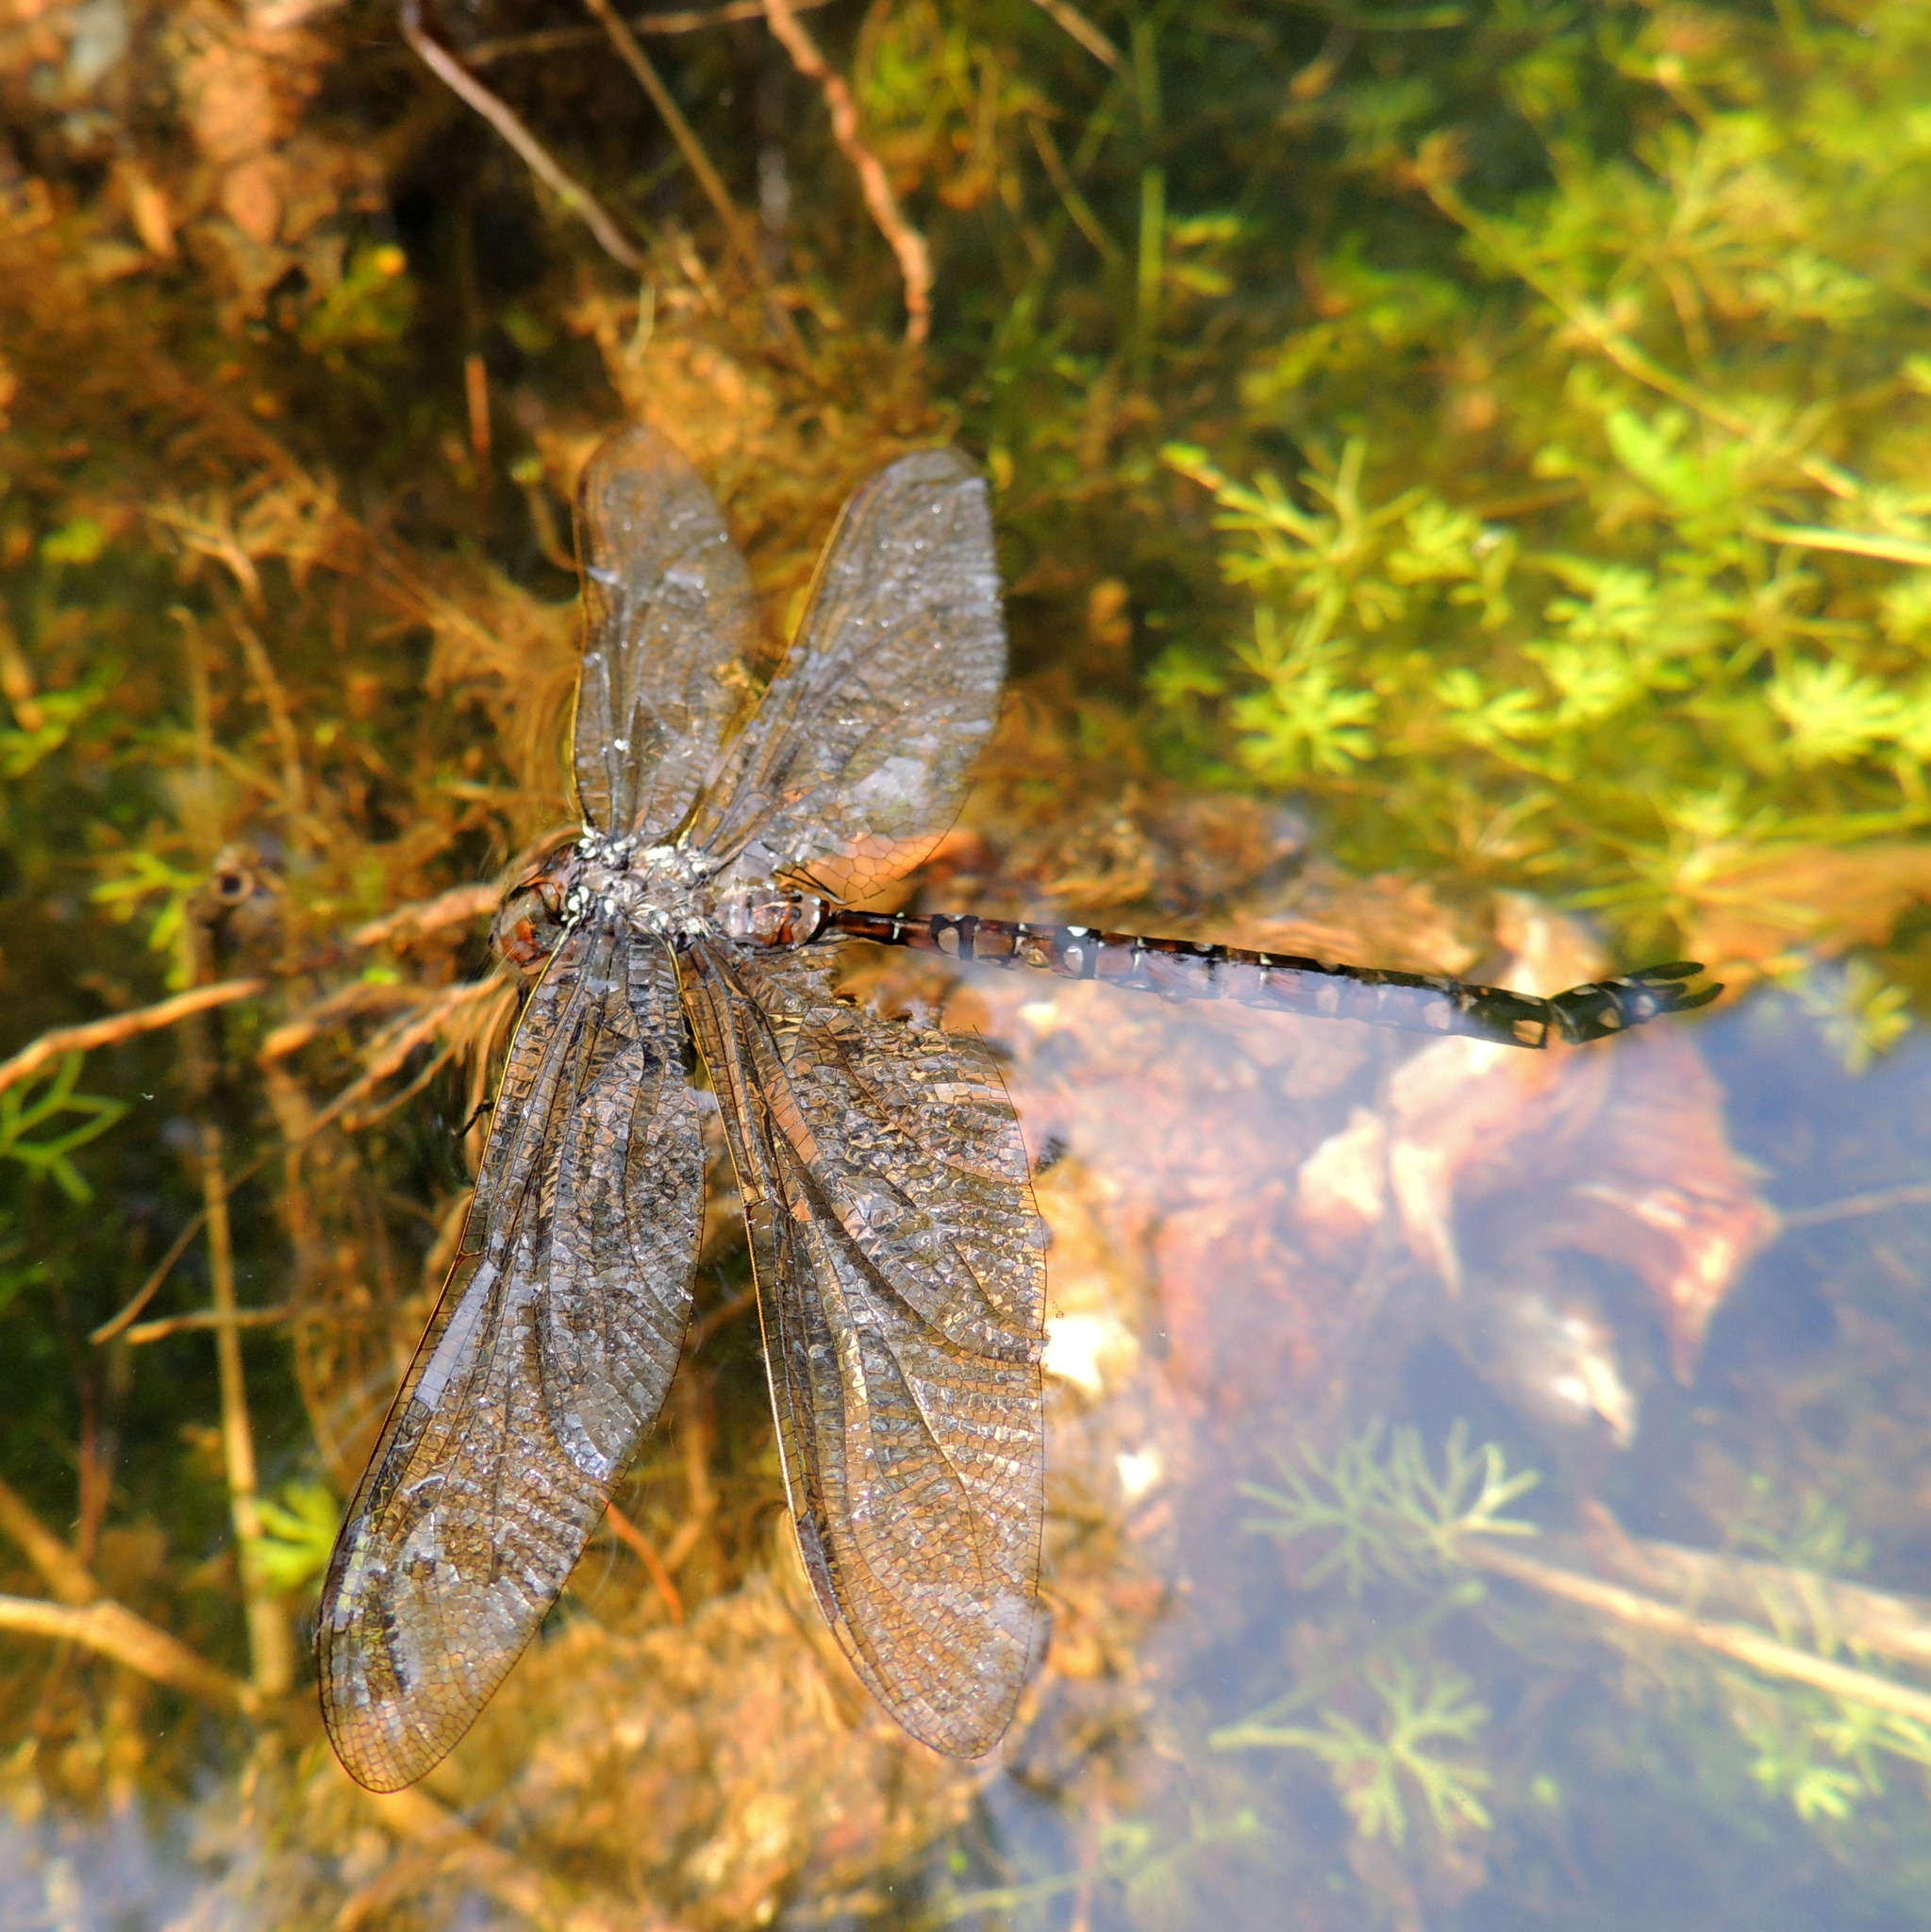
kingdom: Animalia
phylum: Arthropoda
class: Insecta
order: Odonata
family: Aeshnidae
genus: Aeshna
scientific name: Aeshna juncea
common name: Moorland hawker
